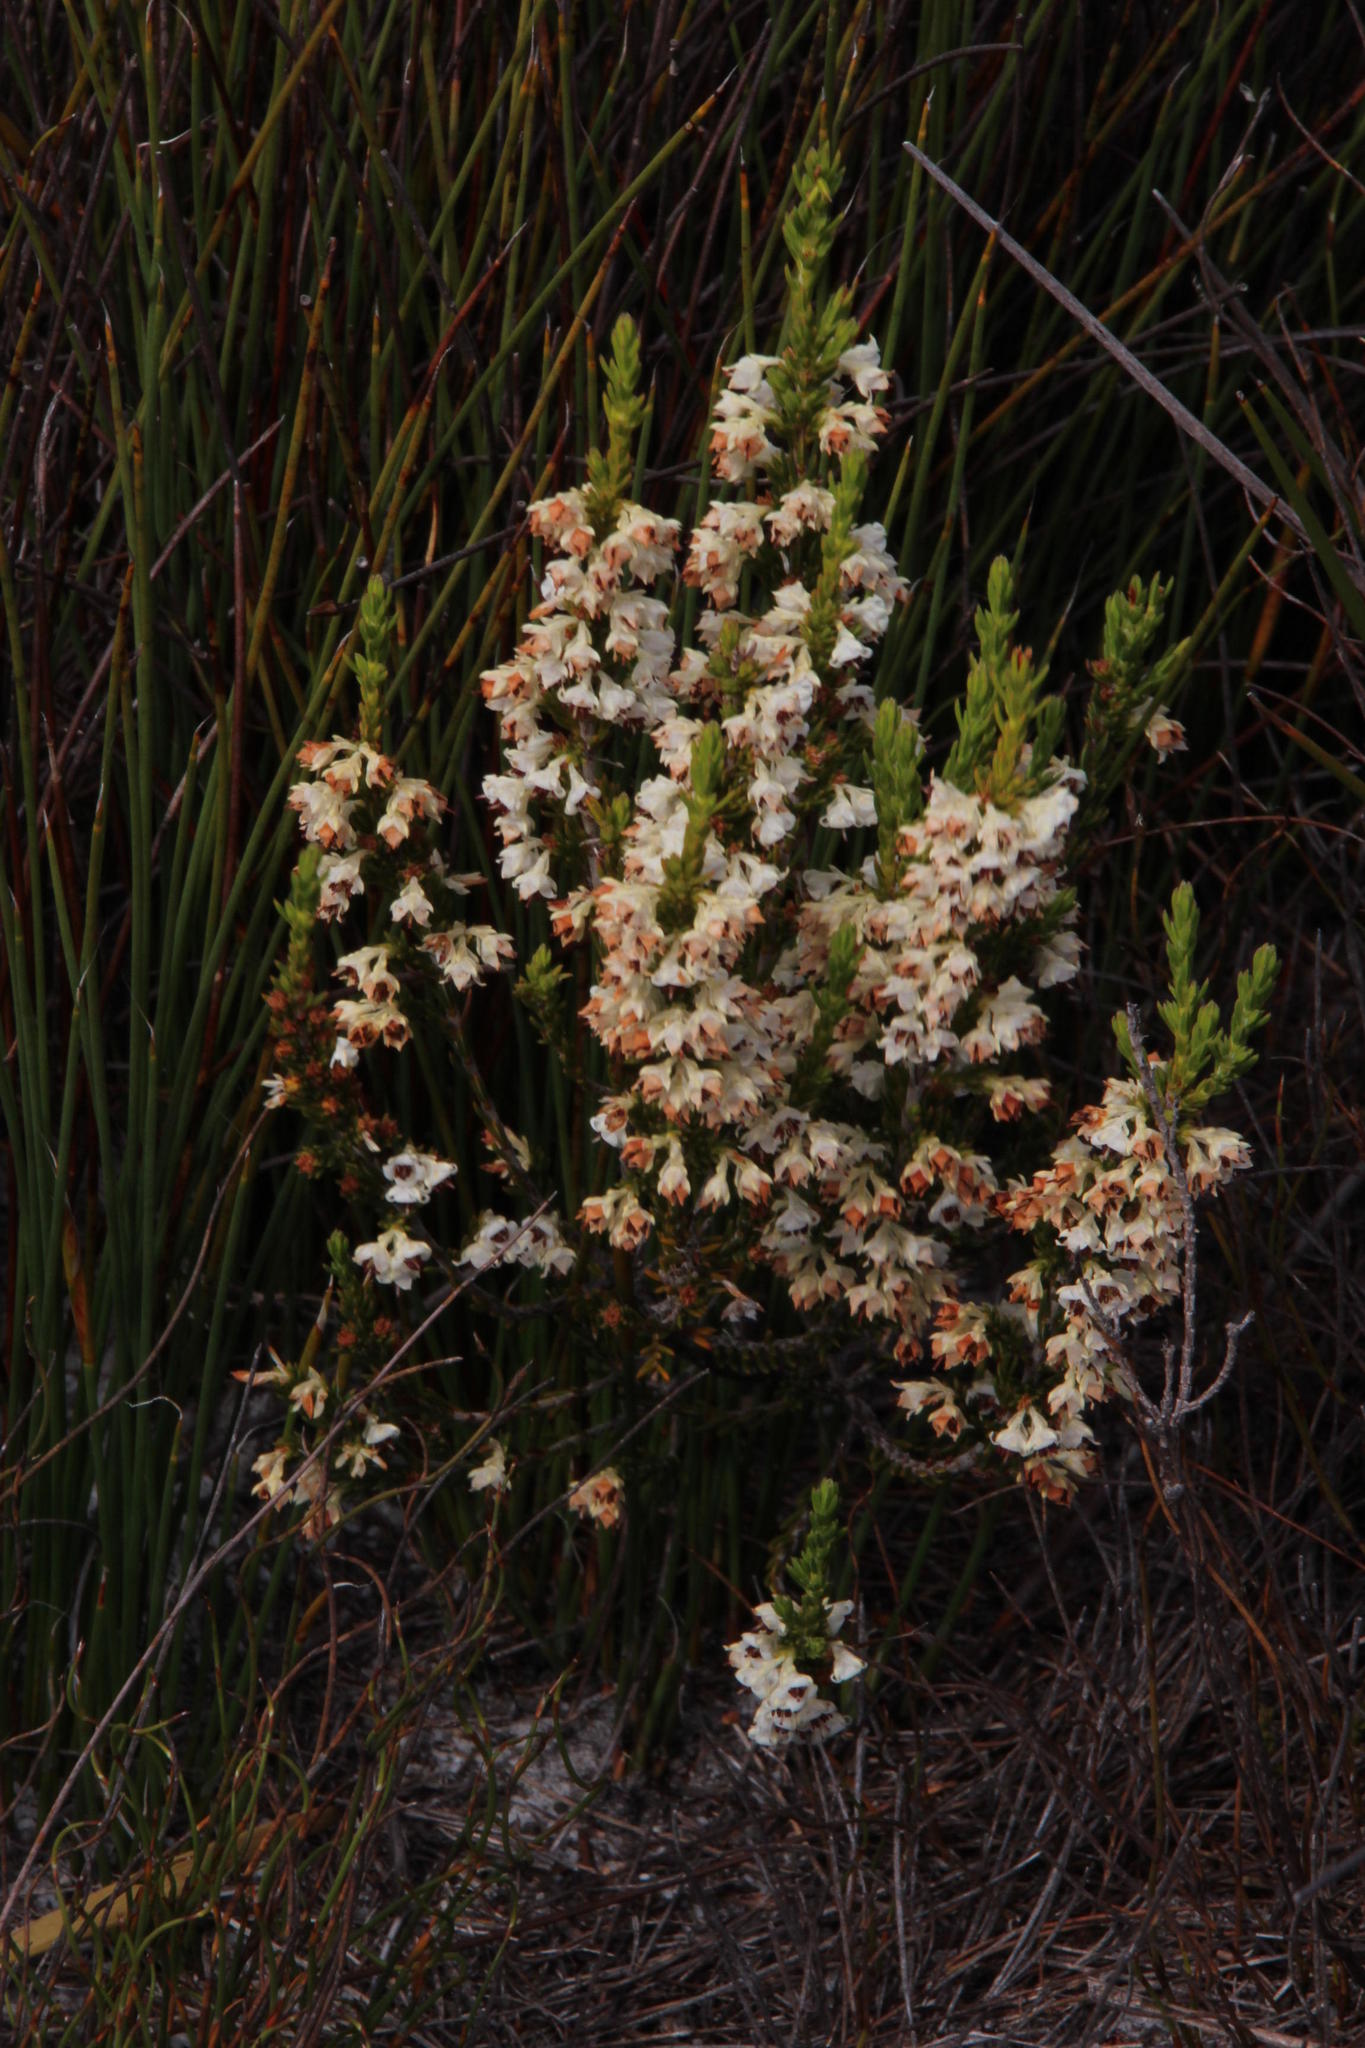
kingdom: Plantae
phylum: Tracheophyta
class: Magnoliopsida
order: Ericales
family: Ericaceae
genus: Erica
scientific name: Erica calycina
